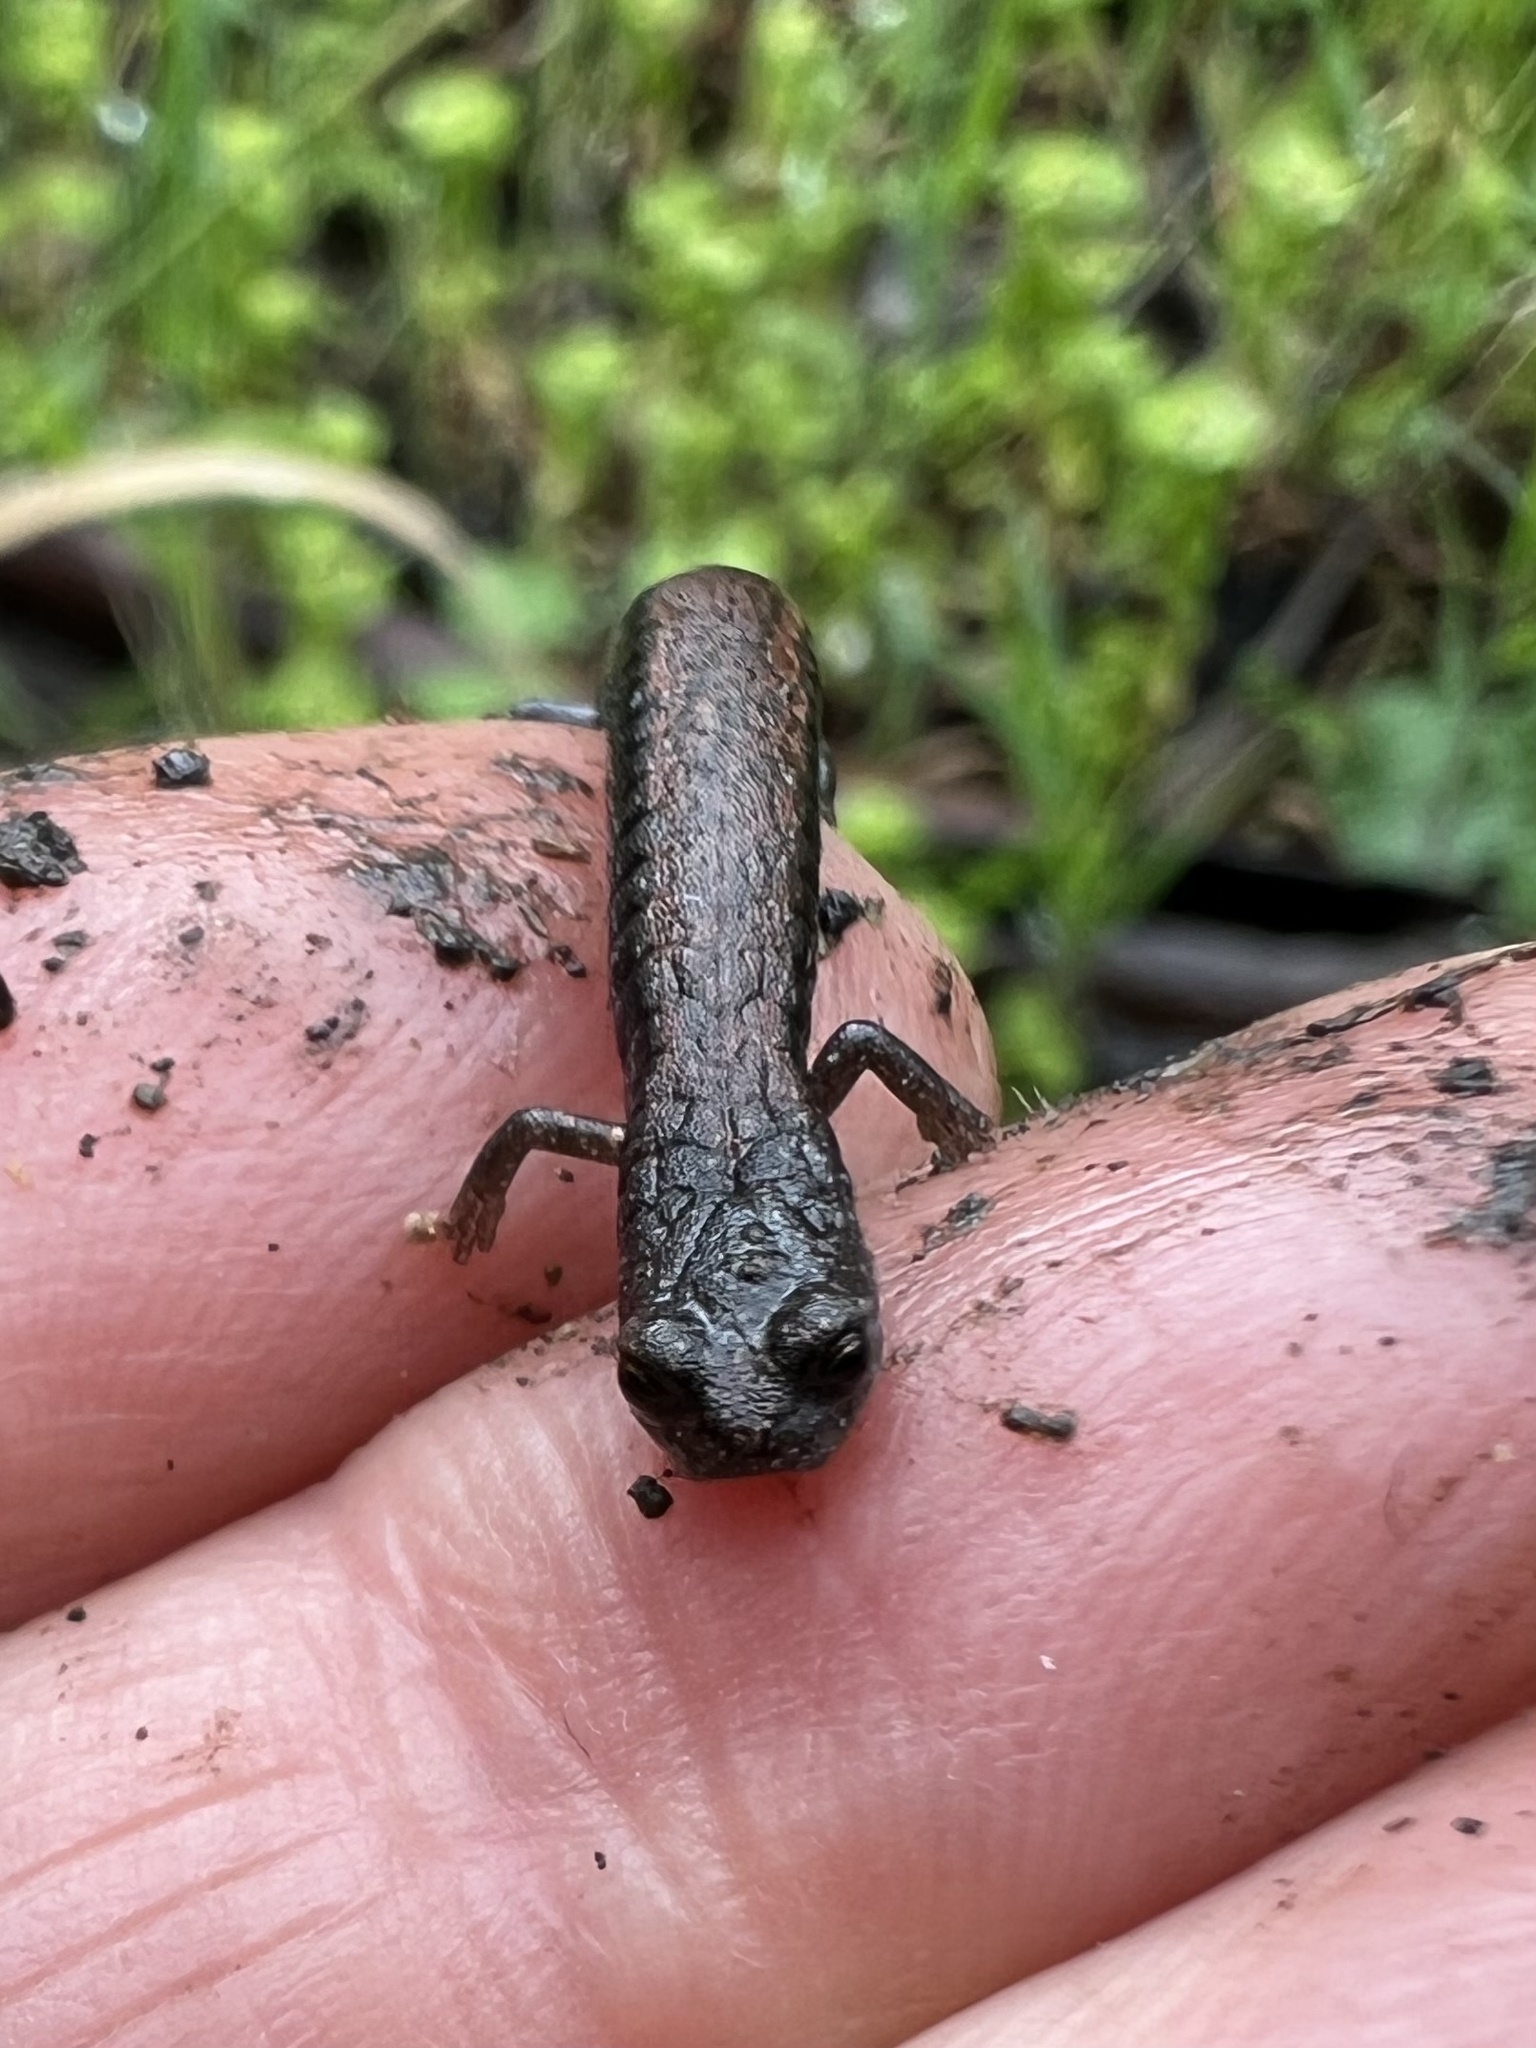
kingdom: Animalia
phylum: Chordata
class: Amphibia
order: Caudata
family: Plethodontidae
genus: Batrachoseps
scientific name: Batrachoseps nigriventris
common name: Black-bellied slender salamander
